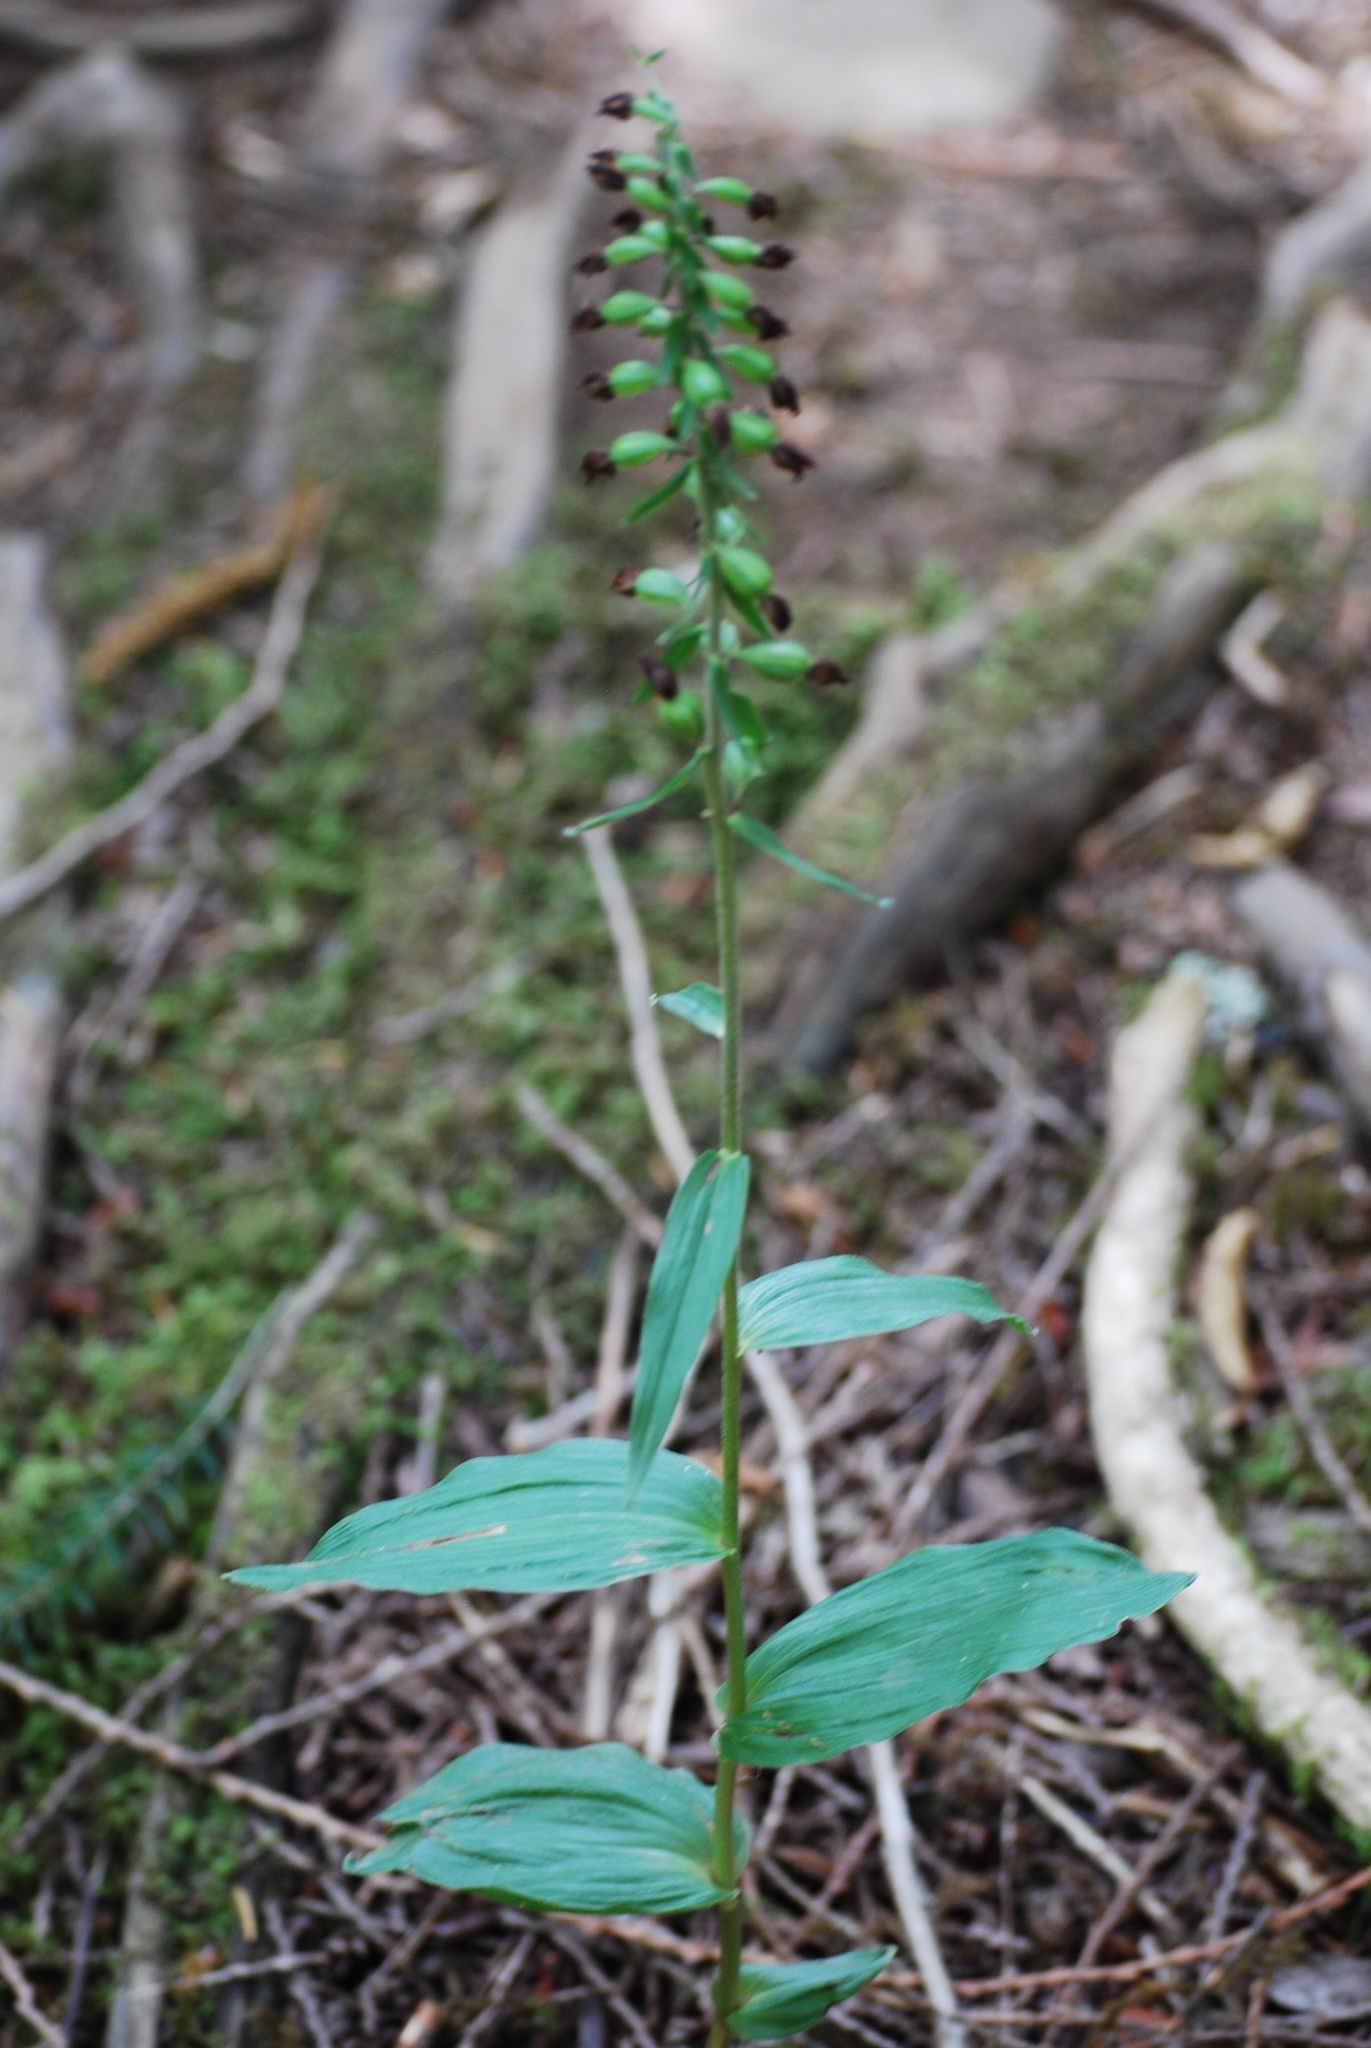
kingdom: Plantae
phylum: Tracheophyta
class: Liliopsida
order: Asparagales
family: Orchidaceae
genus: Epipactis
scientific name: Epipactis helleborine
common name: Broad-leaved helleborine
